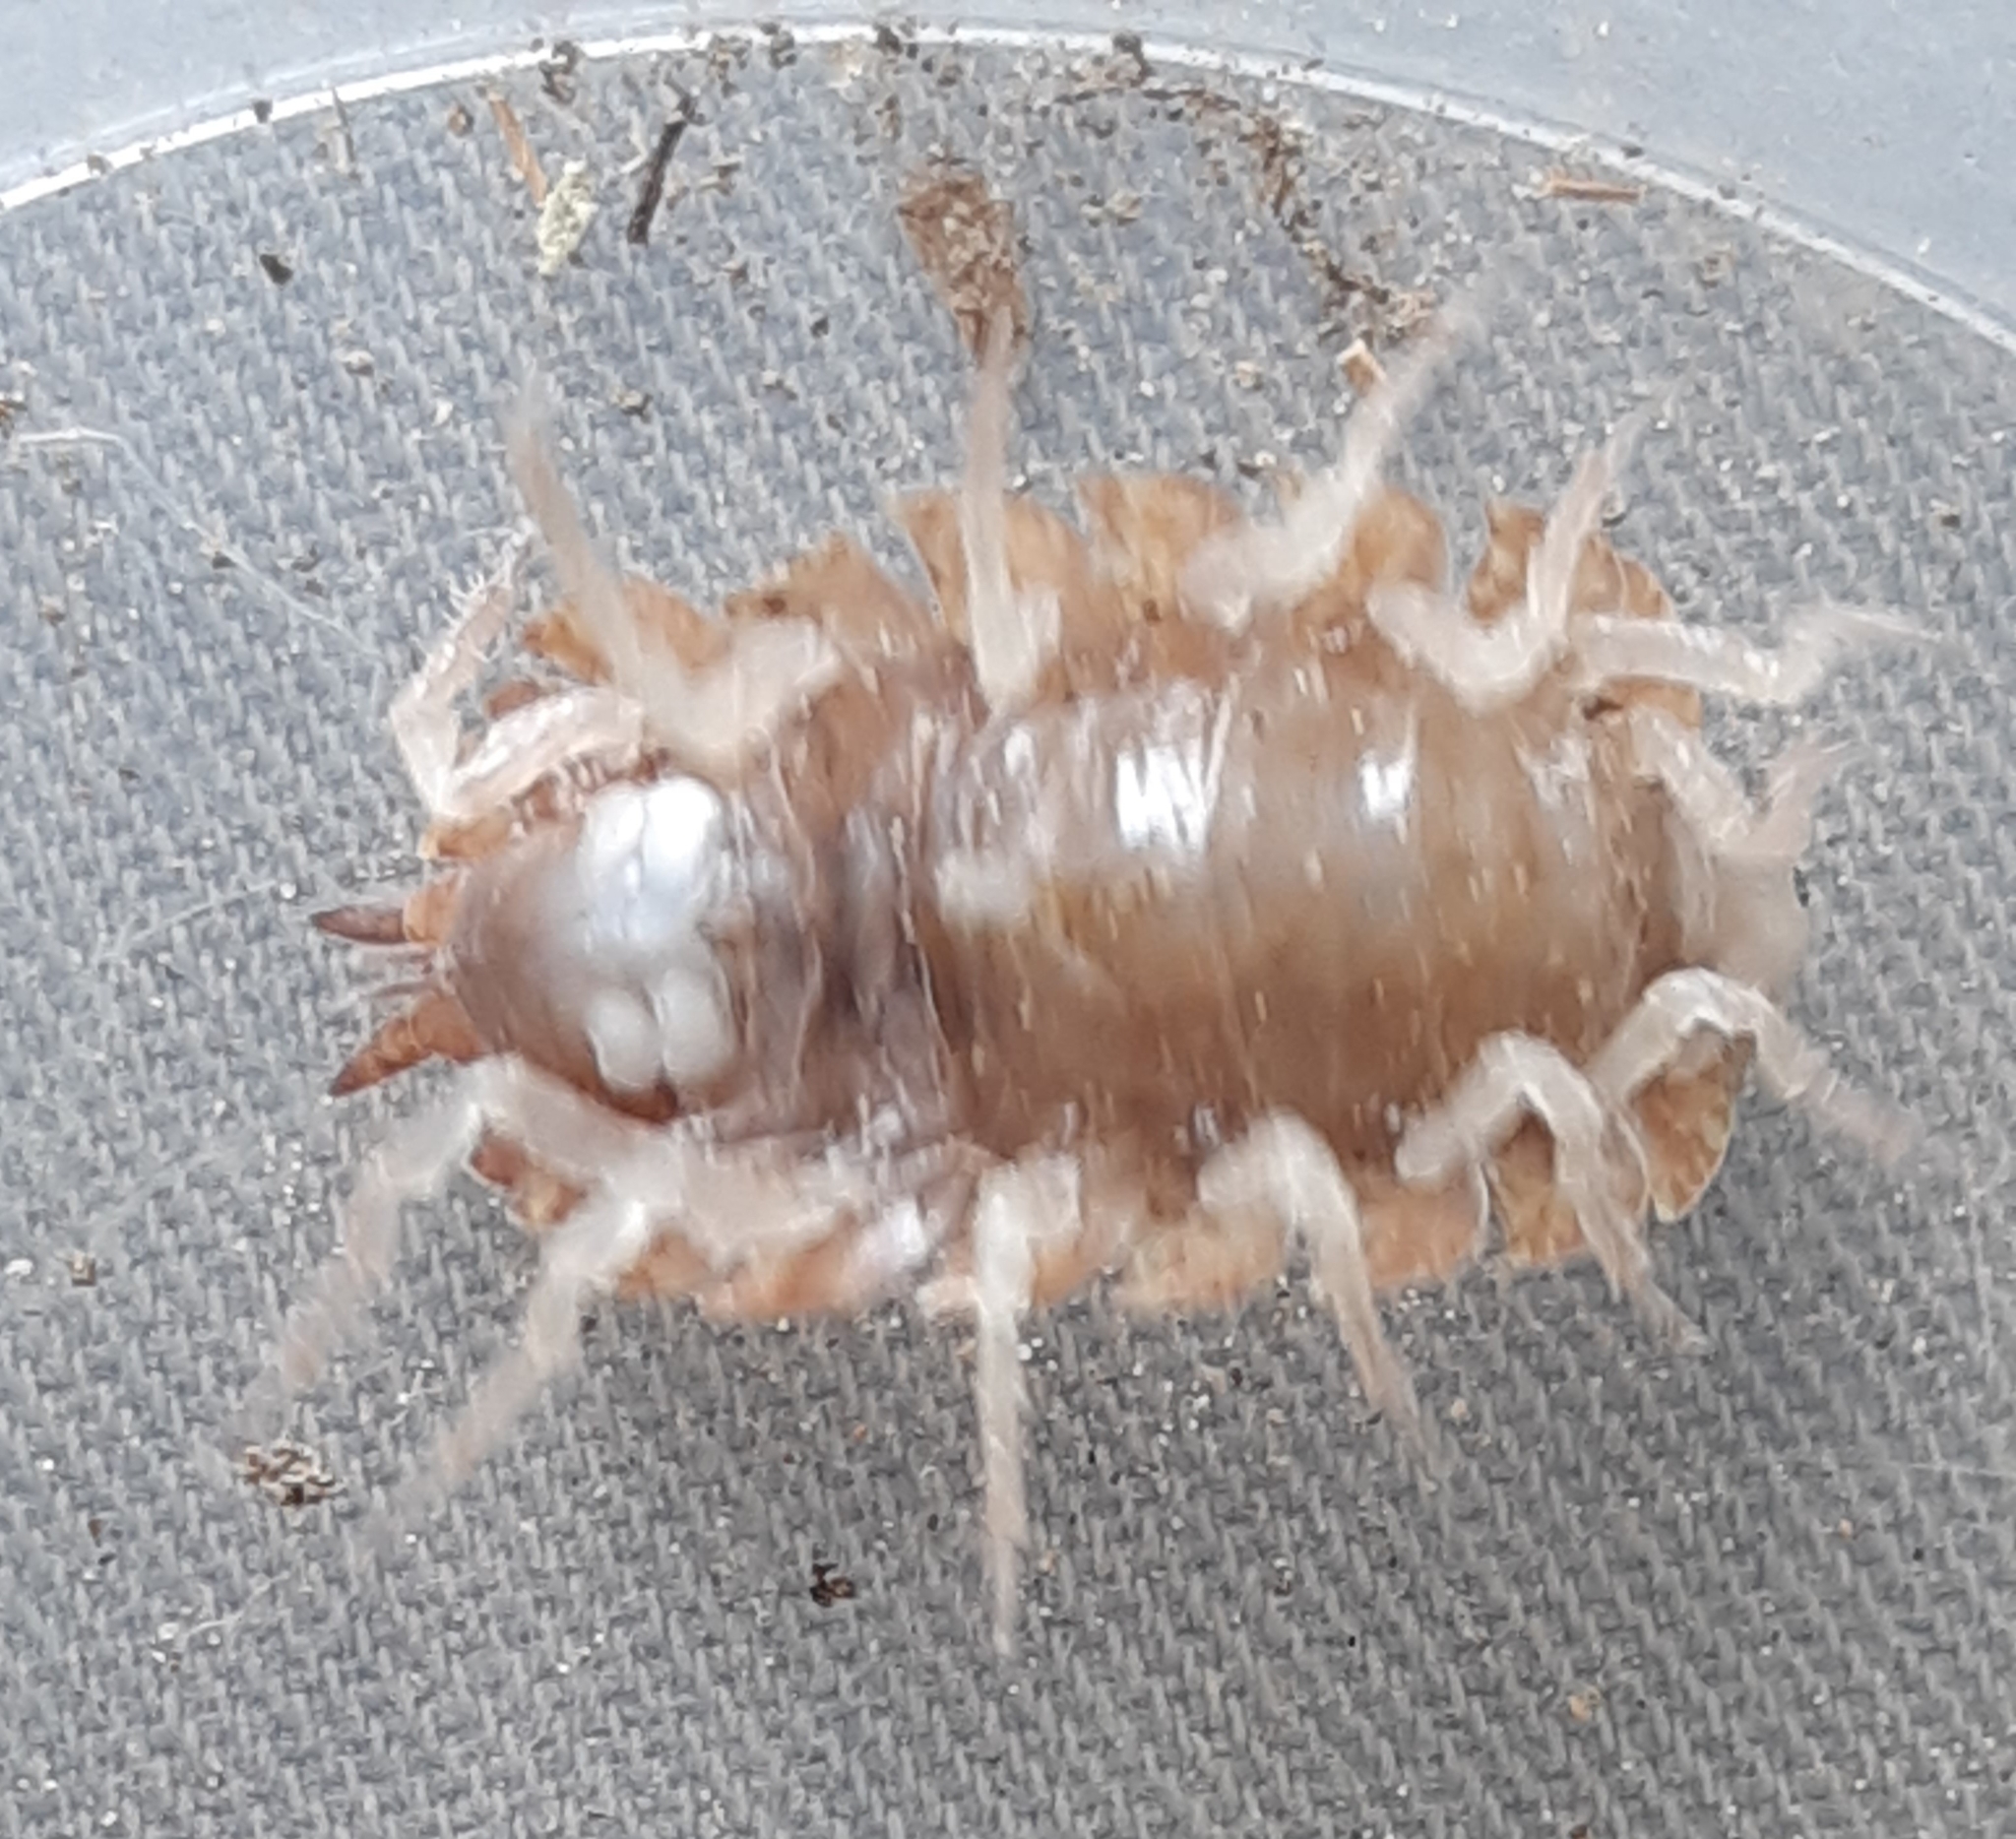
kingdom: Animalia
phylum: Arthropoda
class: Malacostraca
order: Isopoda
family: Porcellionidae
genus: Porcellio
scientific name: Porcellio scaber
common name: Common rough woodlouse
